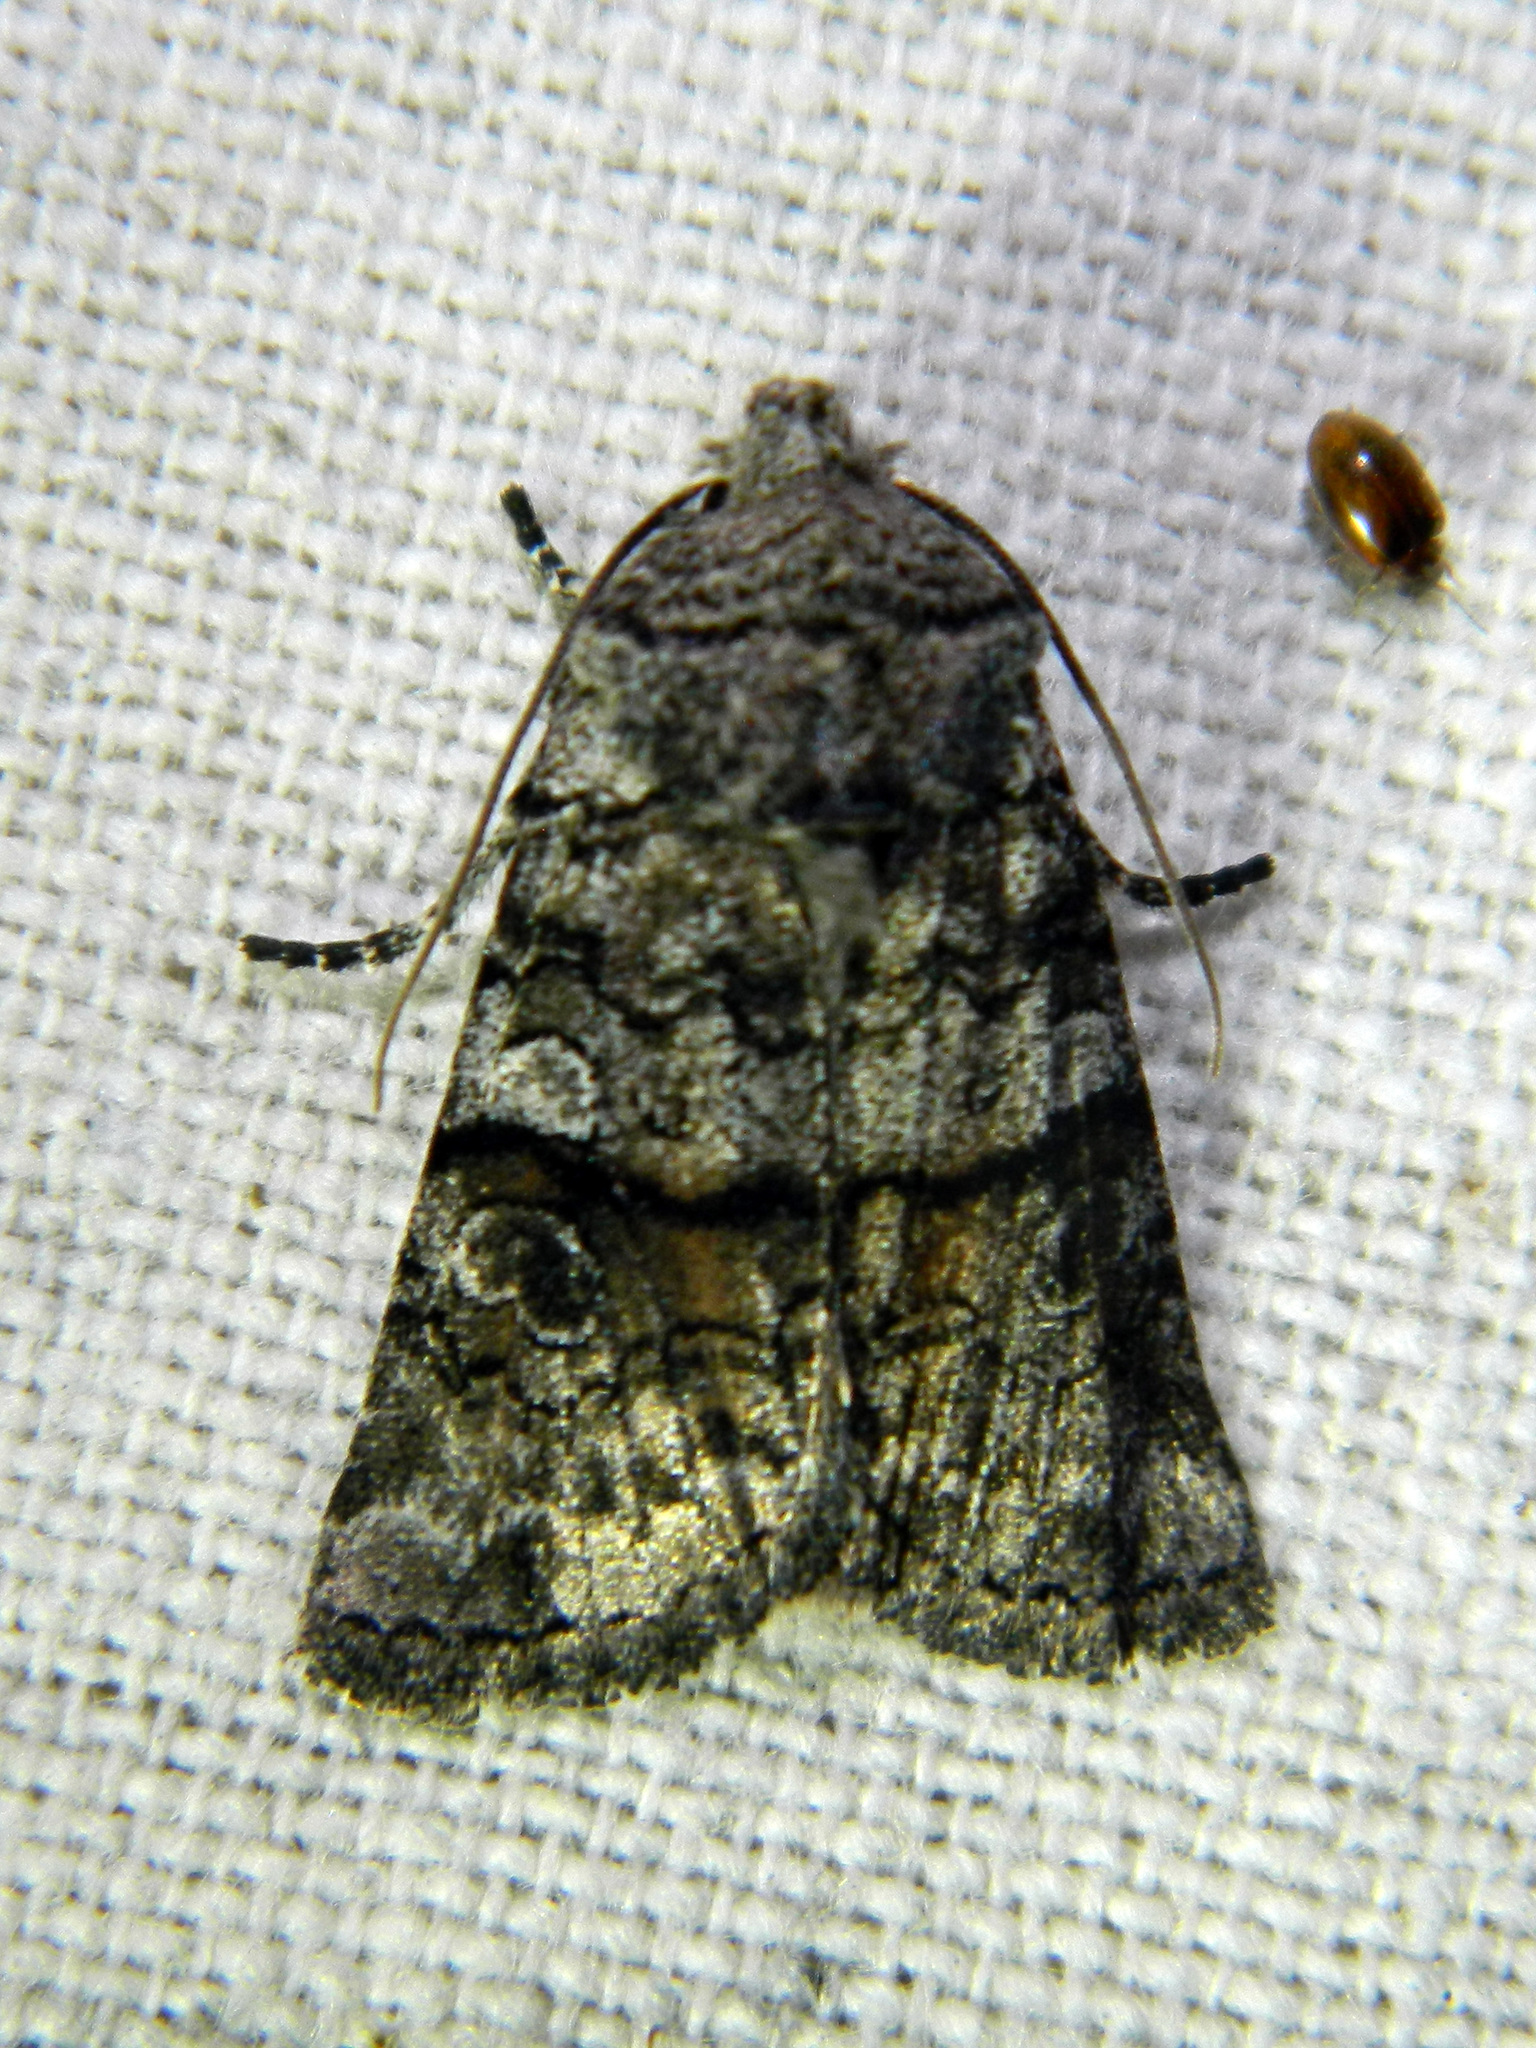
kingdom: Animalia
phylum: Arthropoda
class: Insecta
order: Lepidoptera
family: Noctuidae
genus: Litholomia
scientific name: Litholomia napaea
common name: False pinion moth
